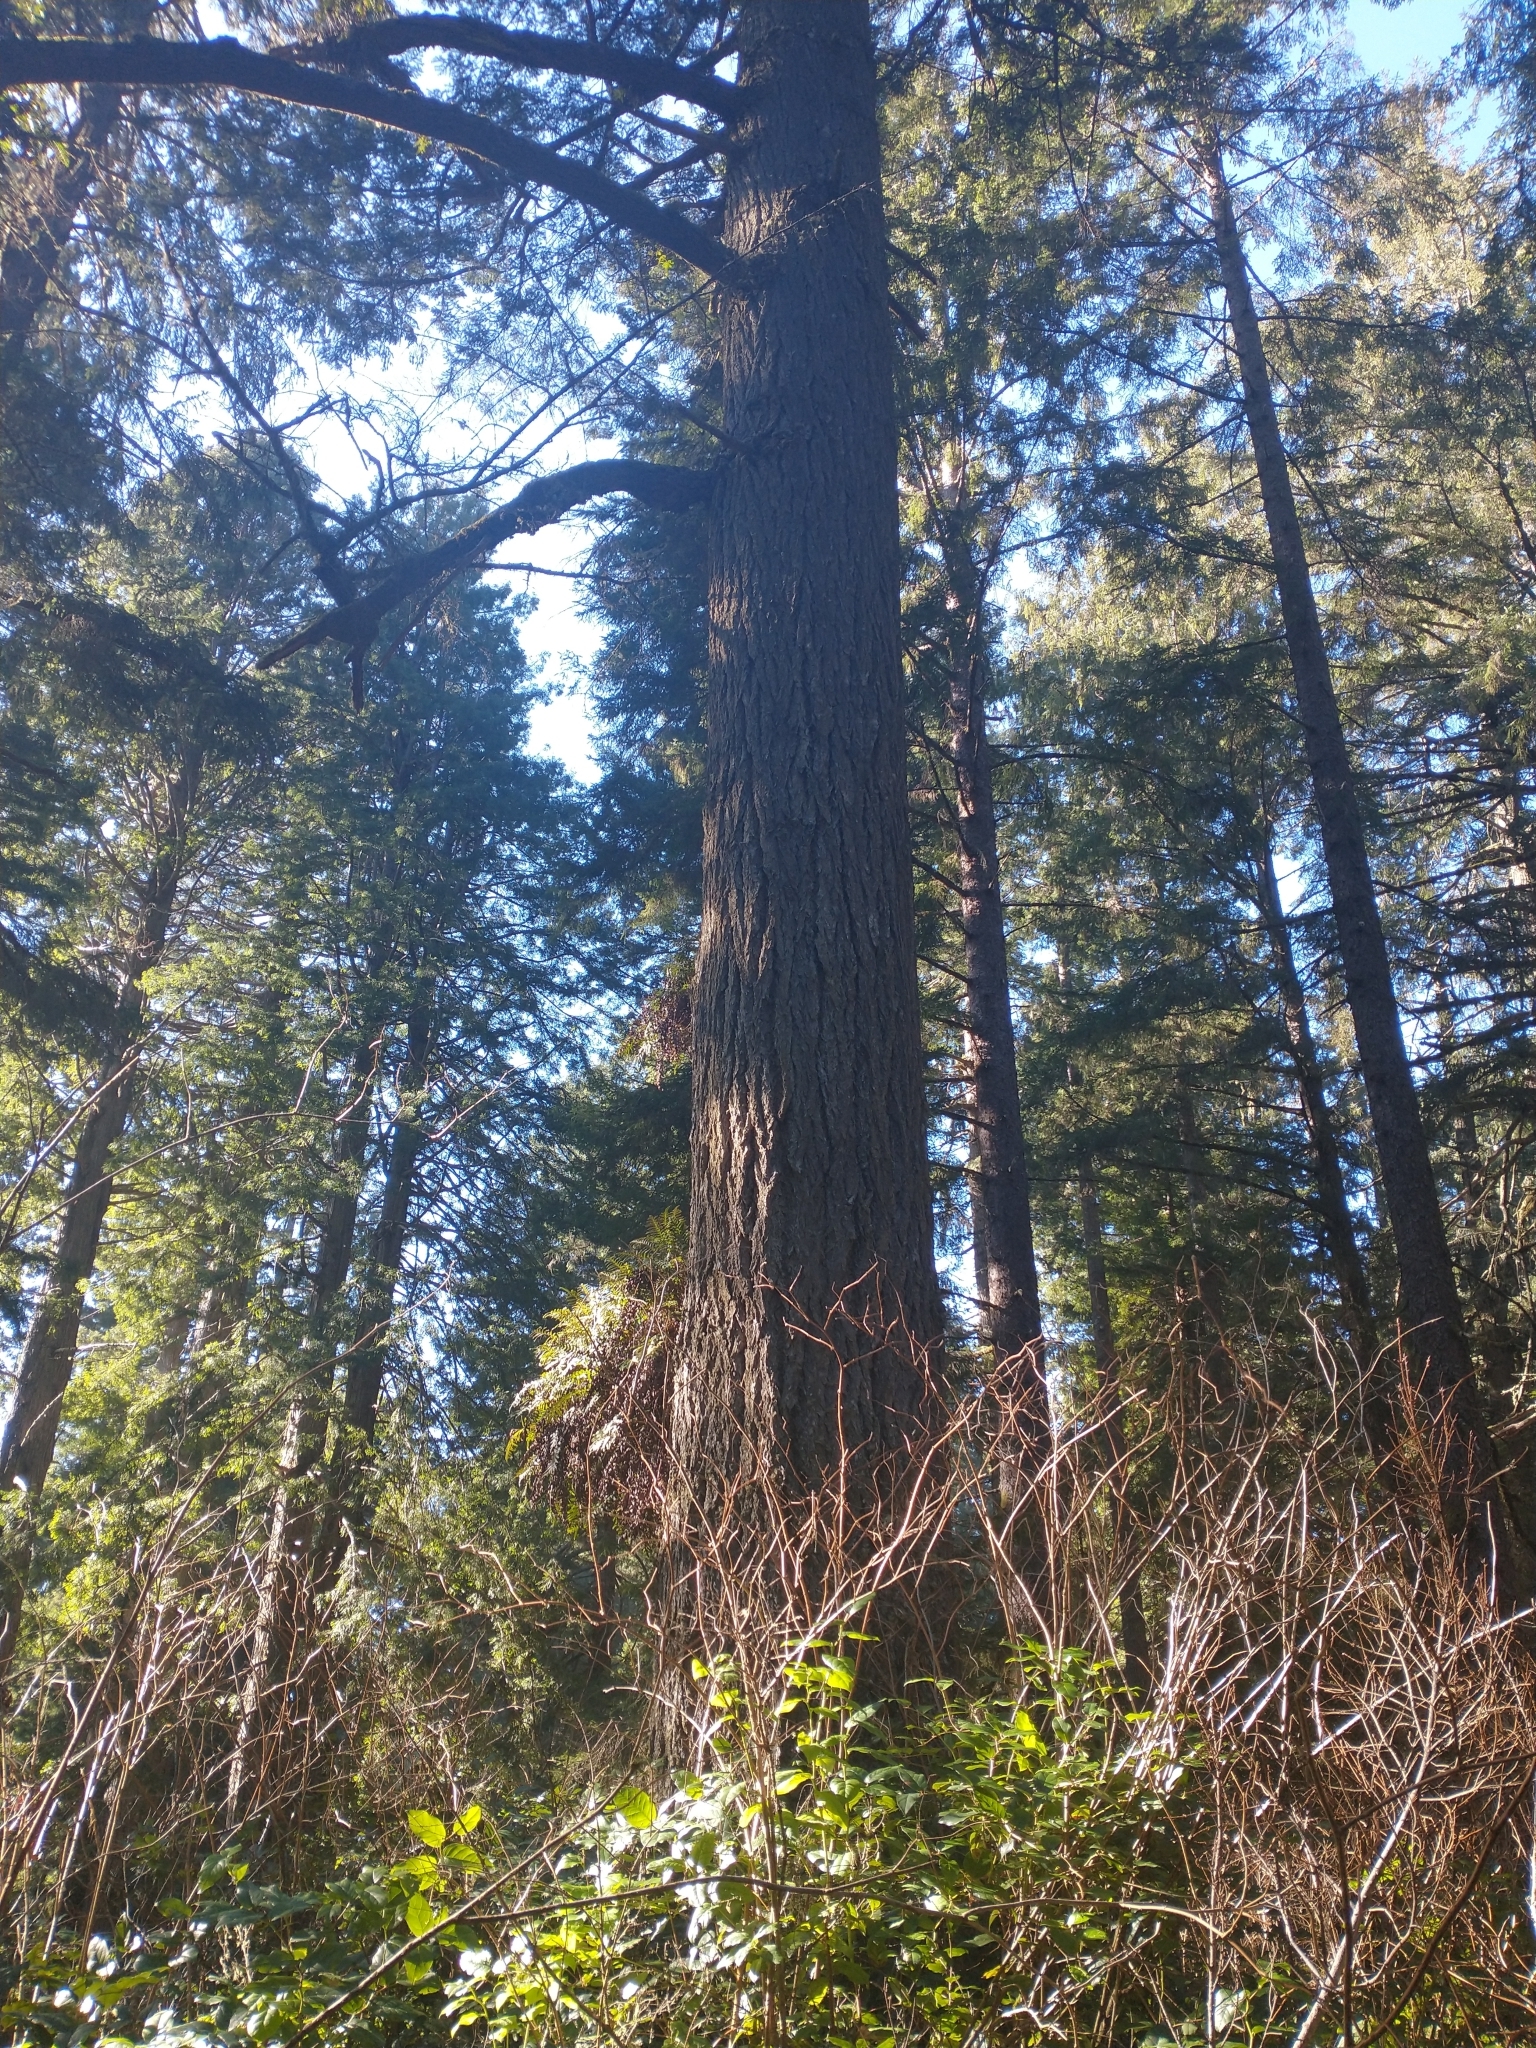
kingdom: Plantae
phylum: Tracheophyta
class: Pinopsida
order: Pinales
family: Pinaceae
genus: Pseudotsuga
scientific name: Pseudotsuga menziesii
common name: Douglas fir
